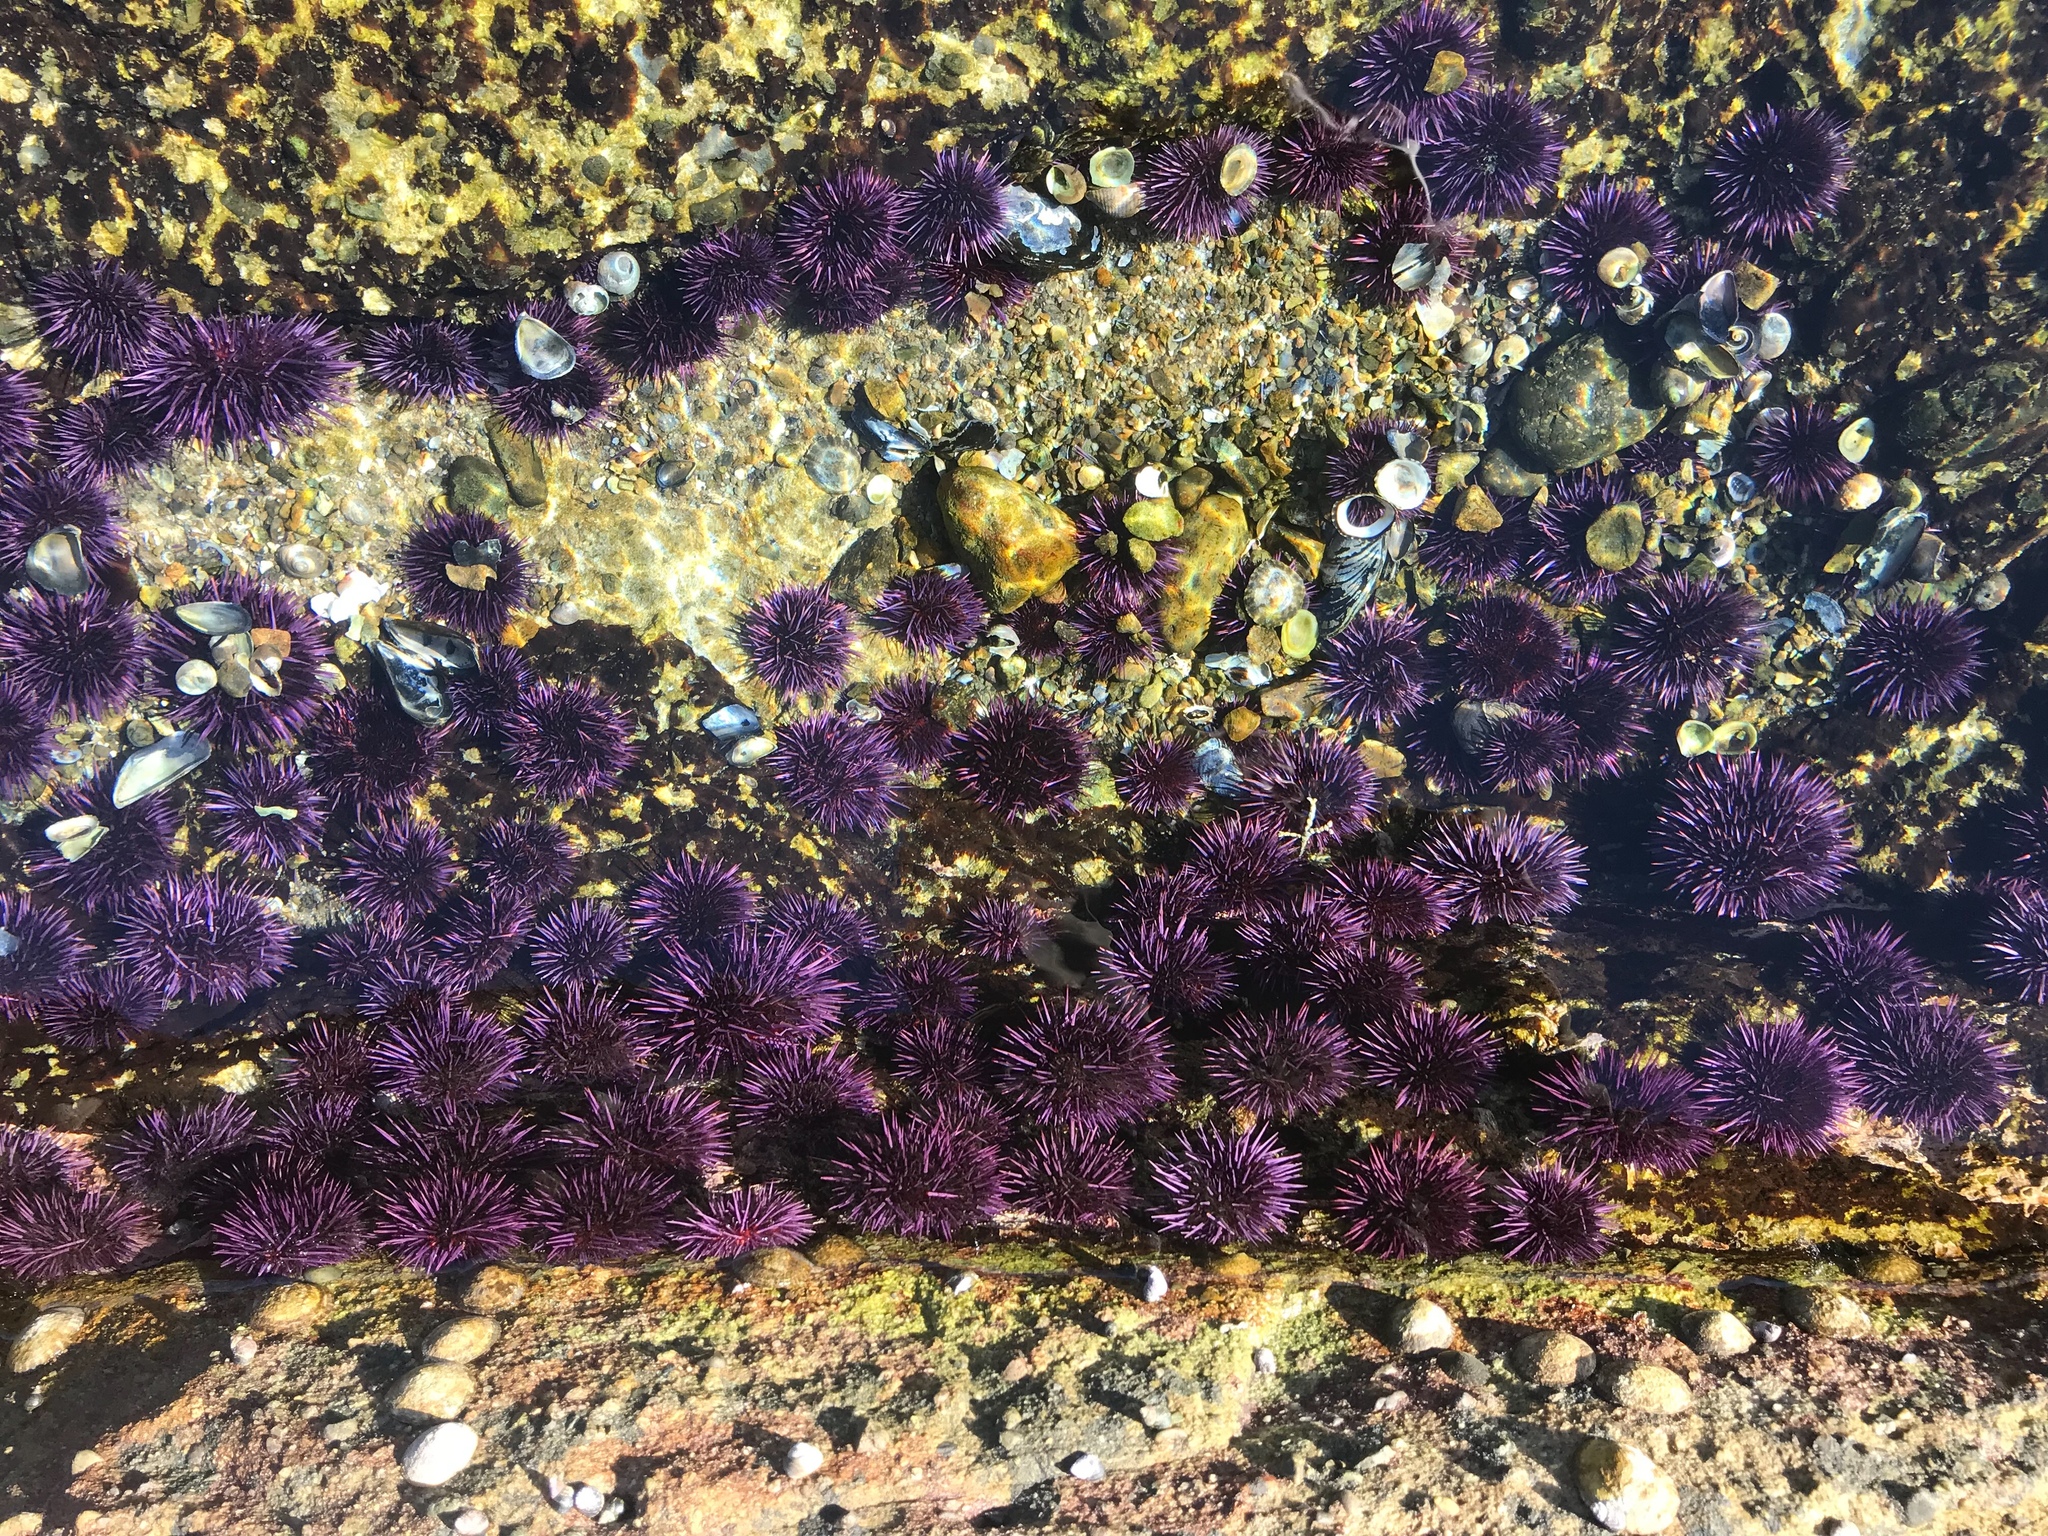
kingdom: Animalia
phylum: Echinodermata
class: Echinoidea
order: Camarodonta
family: Strongylocentrotidae
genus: Strongylocentrotus
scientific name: Strongylocentrotus purpuratus
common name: Purple sea urchin
